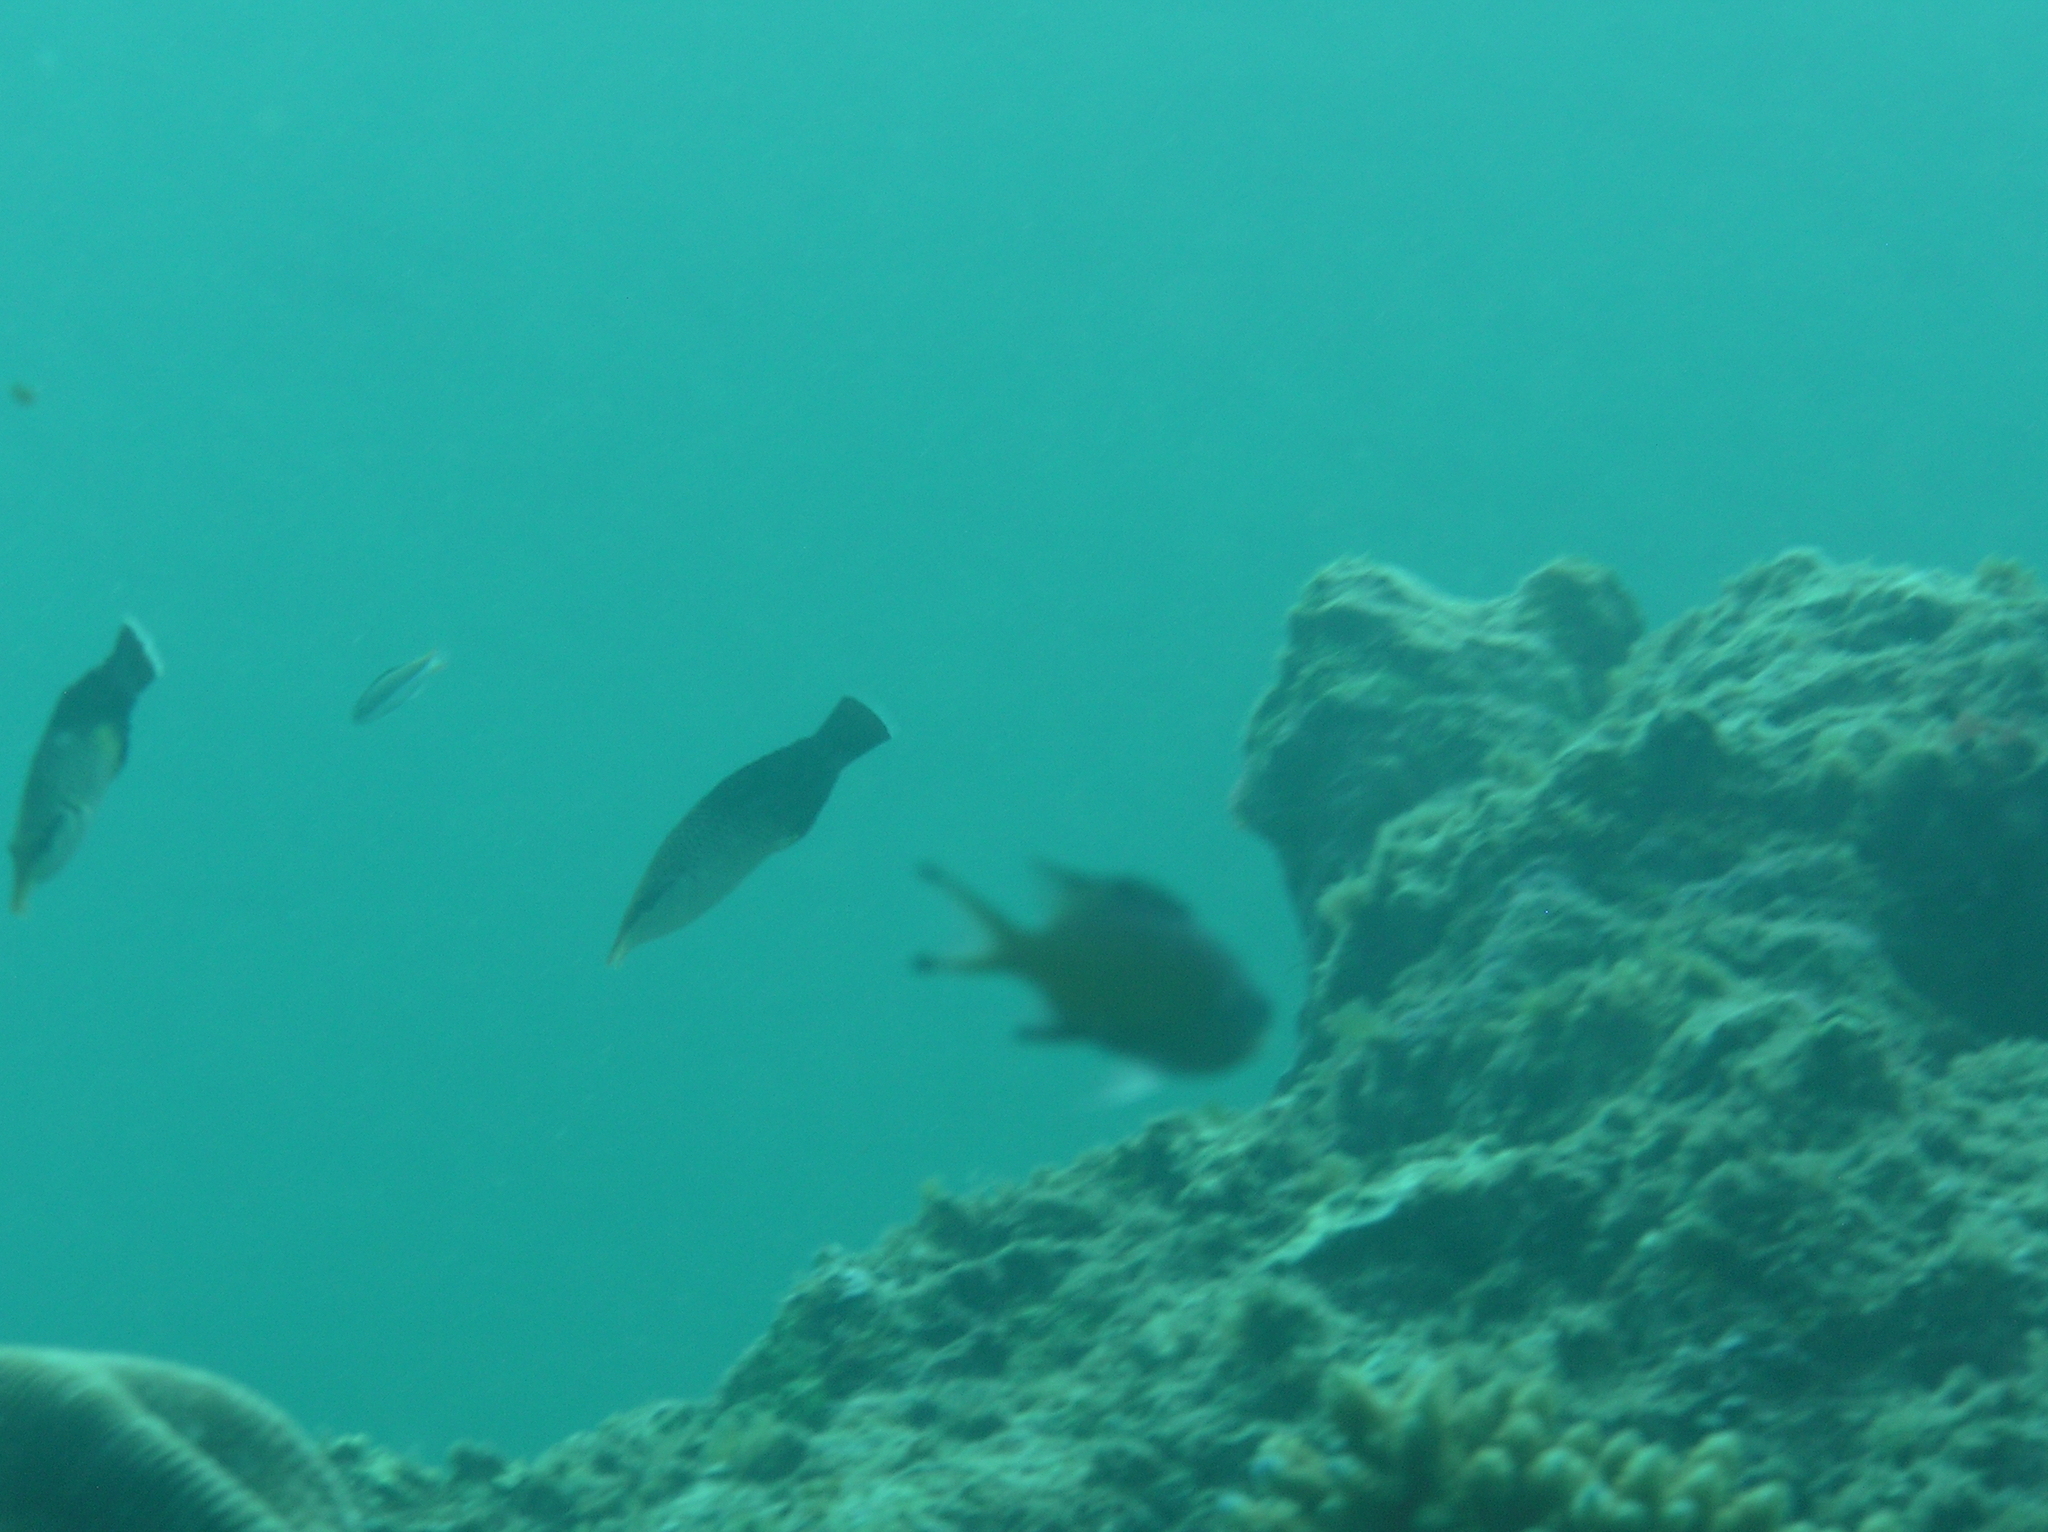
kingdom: Animalia
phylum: Chordata
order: Perciformes
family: Labridae
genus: Gomphosus
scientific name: Gomphosus varius
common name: Bird wrasse
